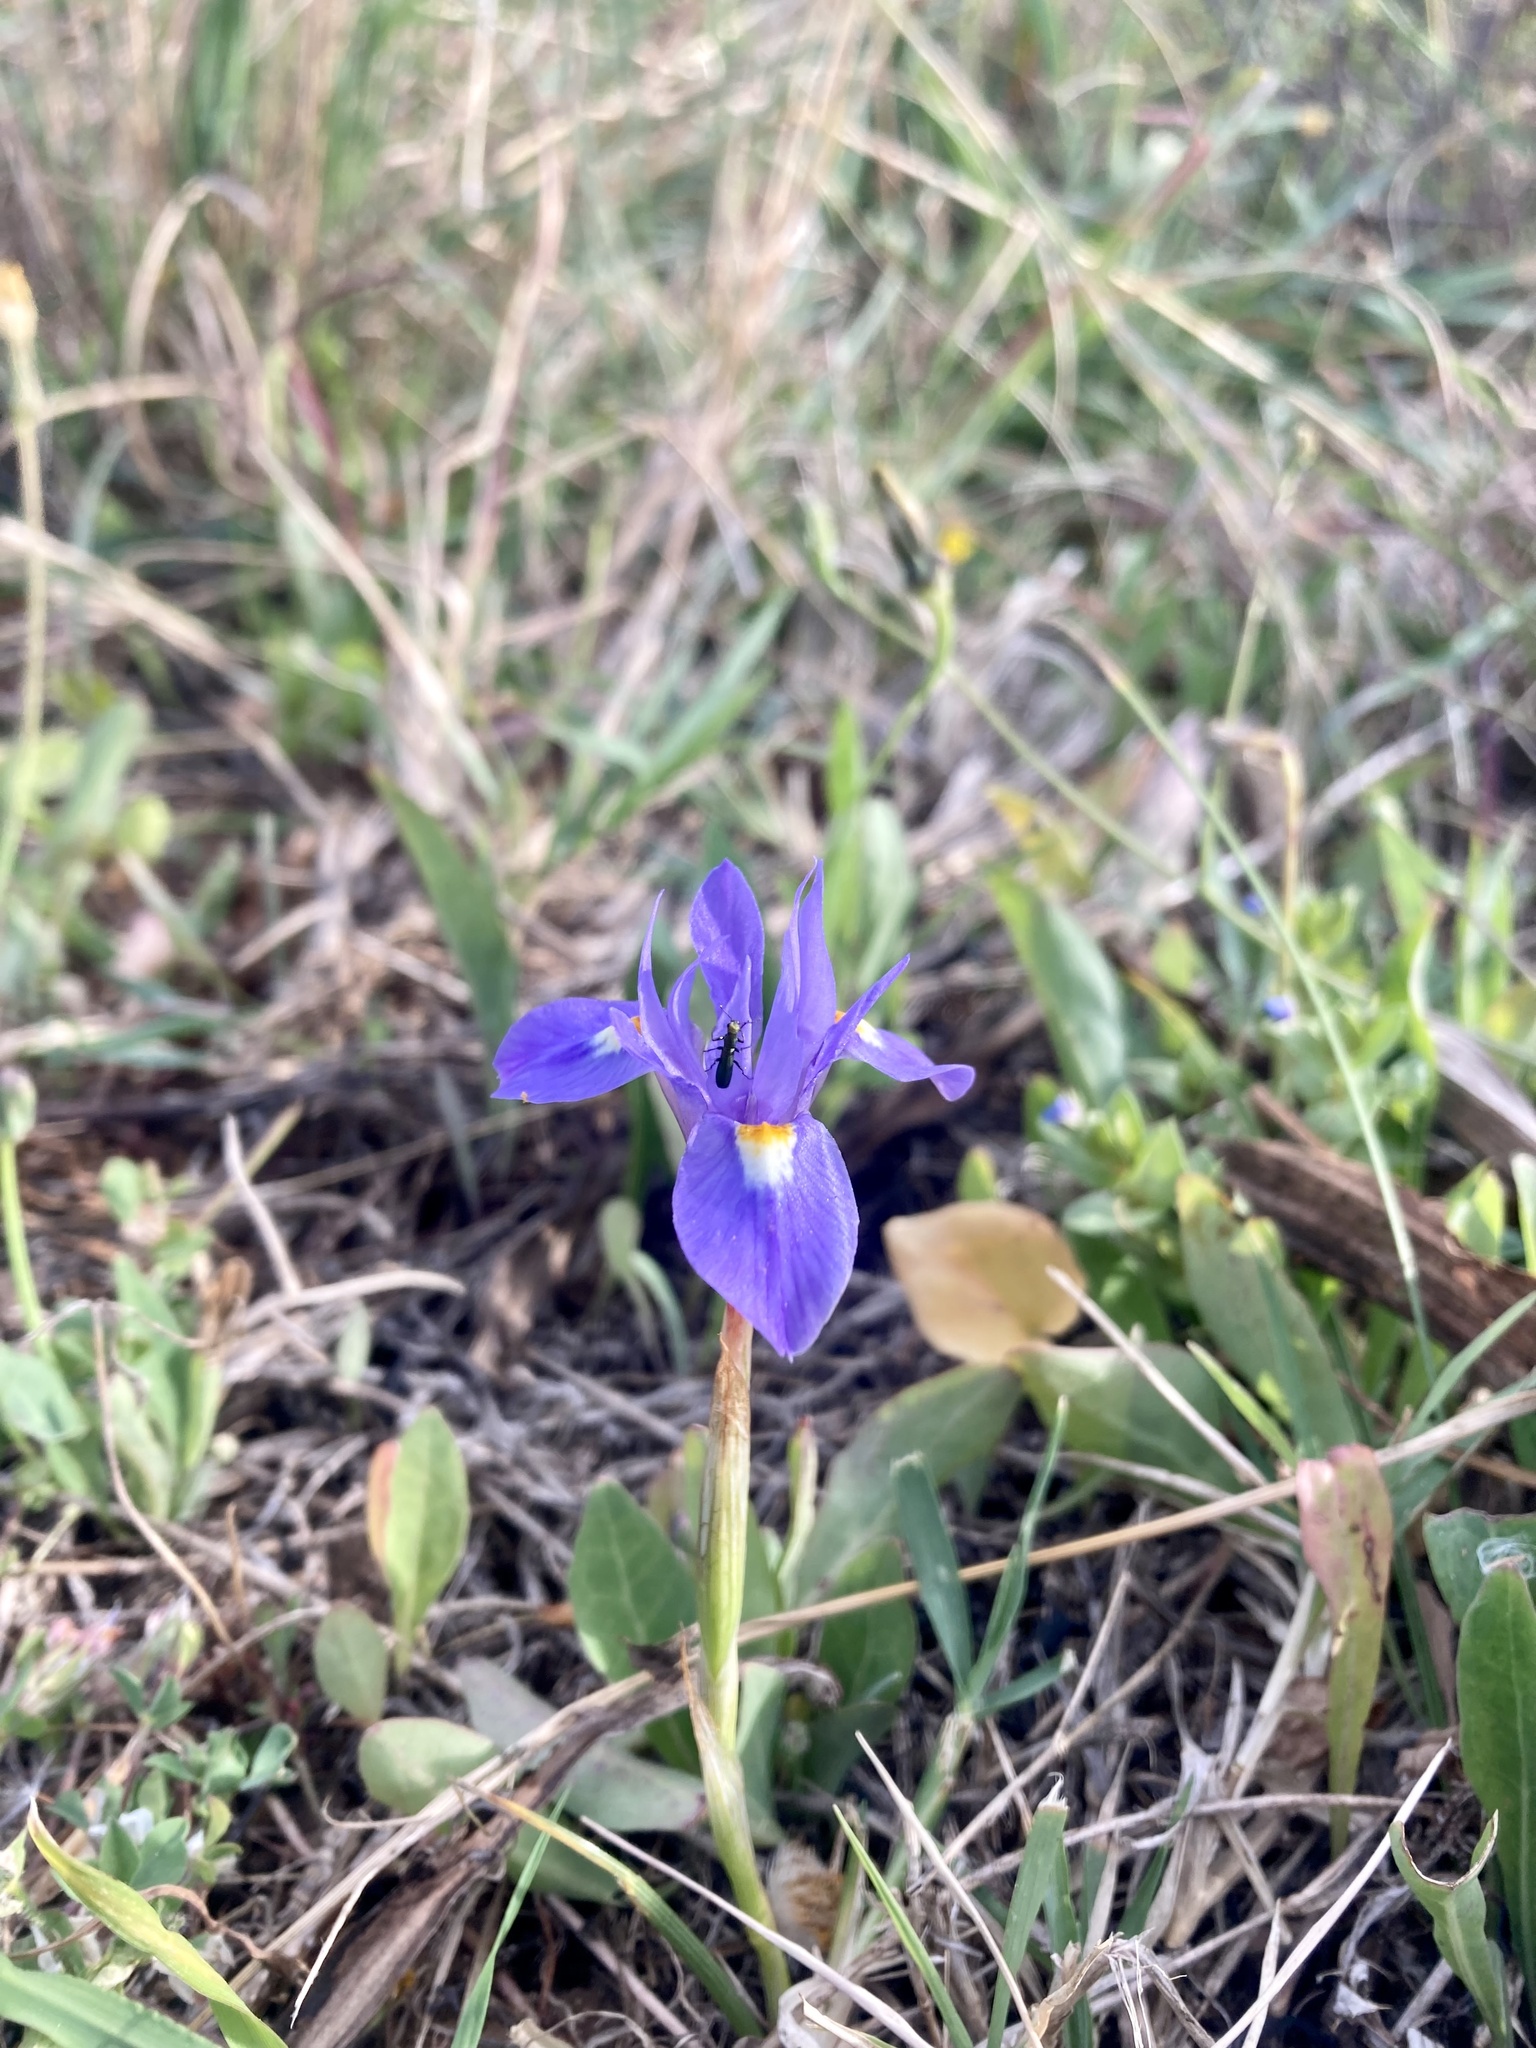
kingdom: Plantae
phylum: Tracheophyta
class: Liliopsida
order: Asparagales
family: Iridaceae
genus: Moraea
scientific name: Moraea sisyrinchium
